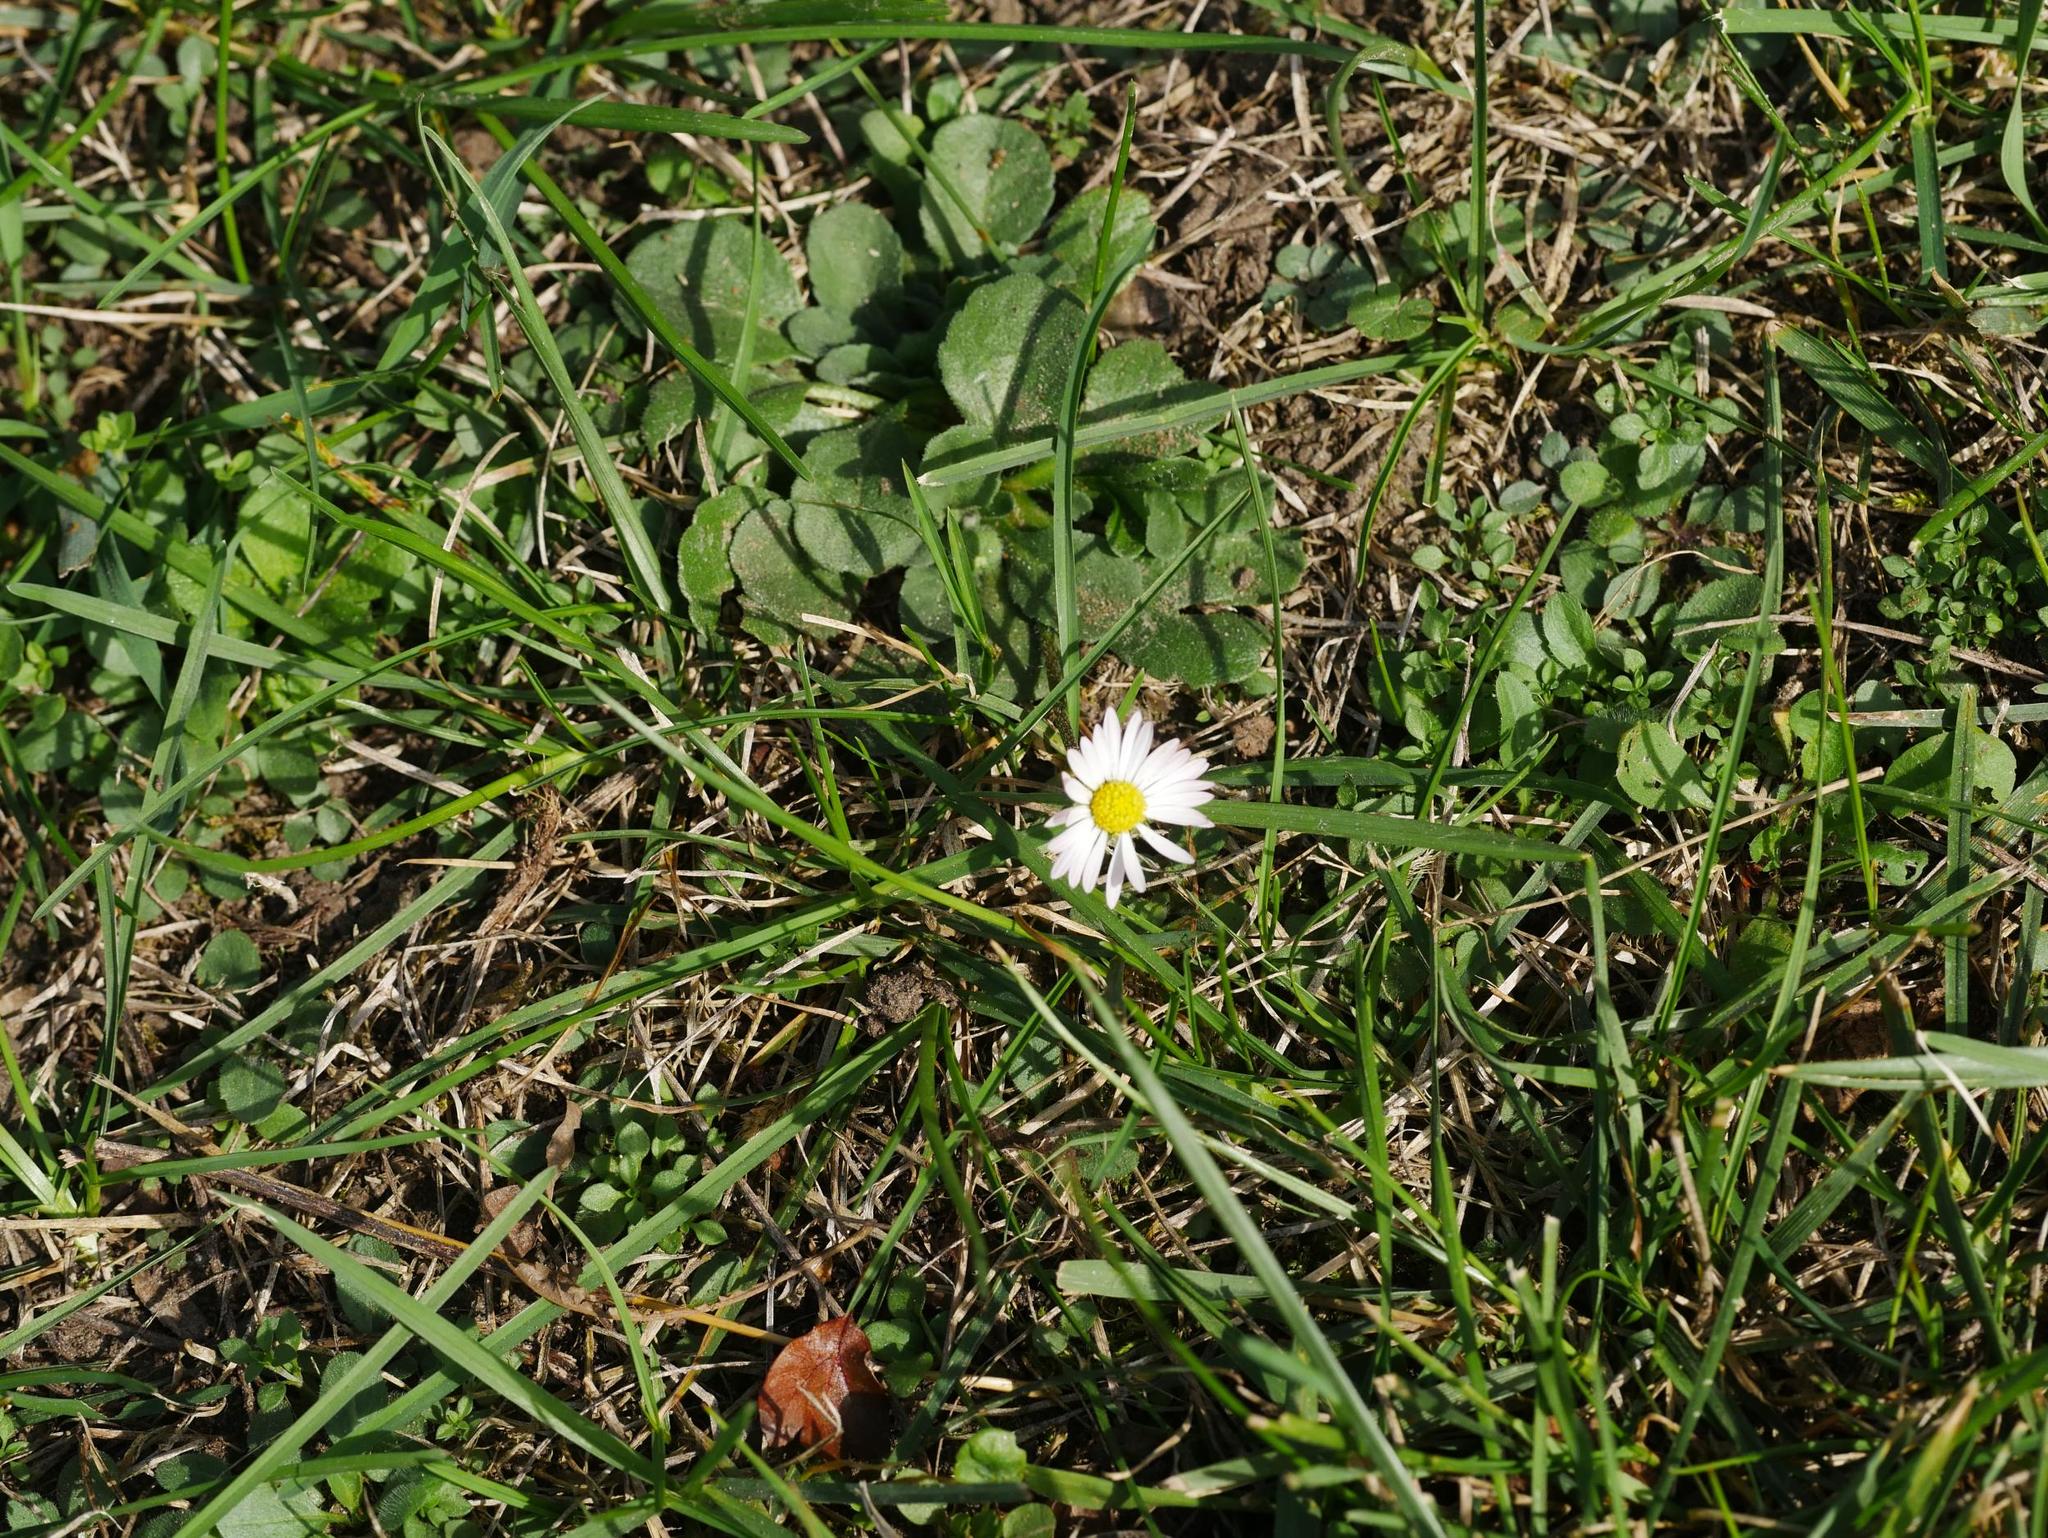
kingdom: Plantae
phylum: Tracheophyta
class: Magnoliopsida
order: Asterales
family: Asteraceae
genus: Bellis
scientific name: Bellis perennis
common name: Lawndaisy
